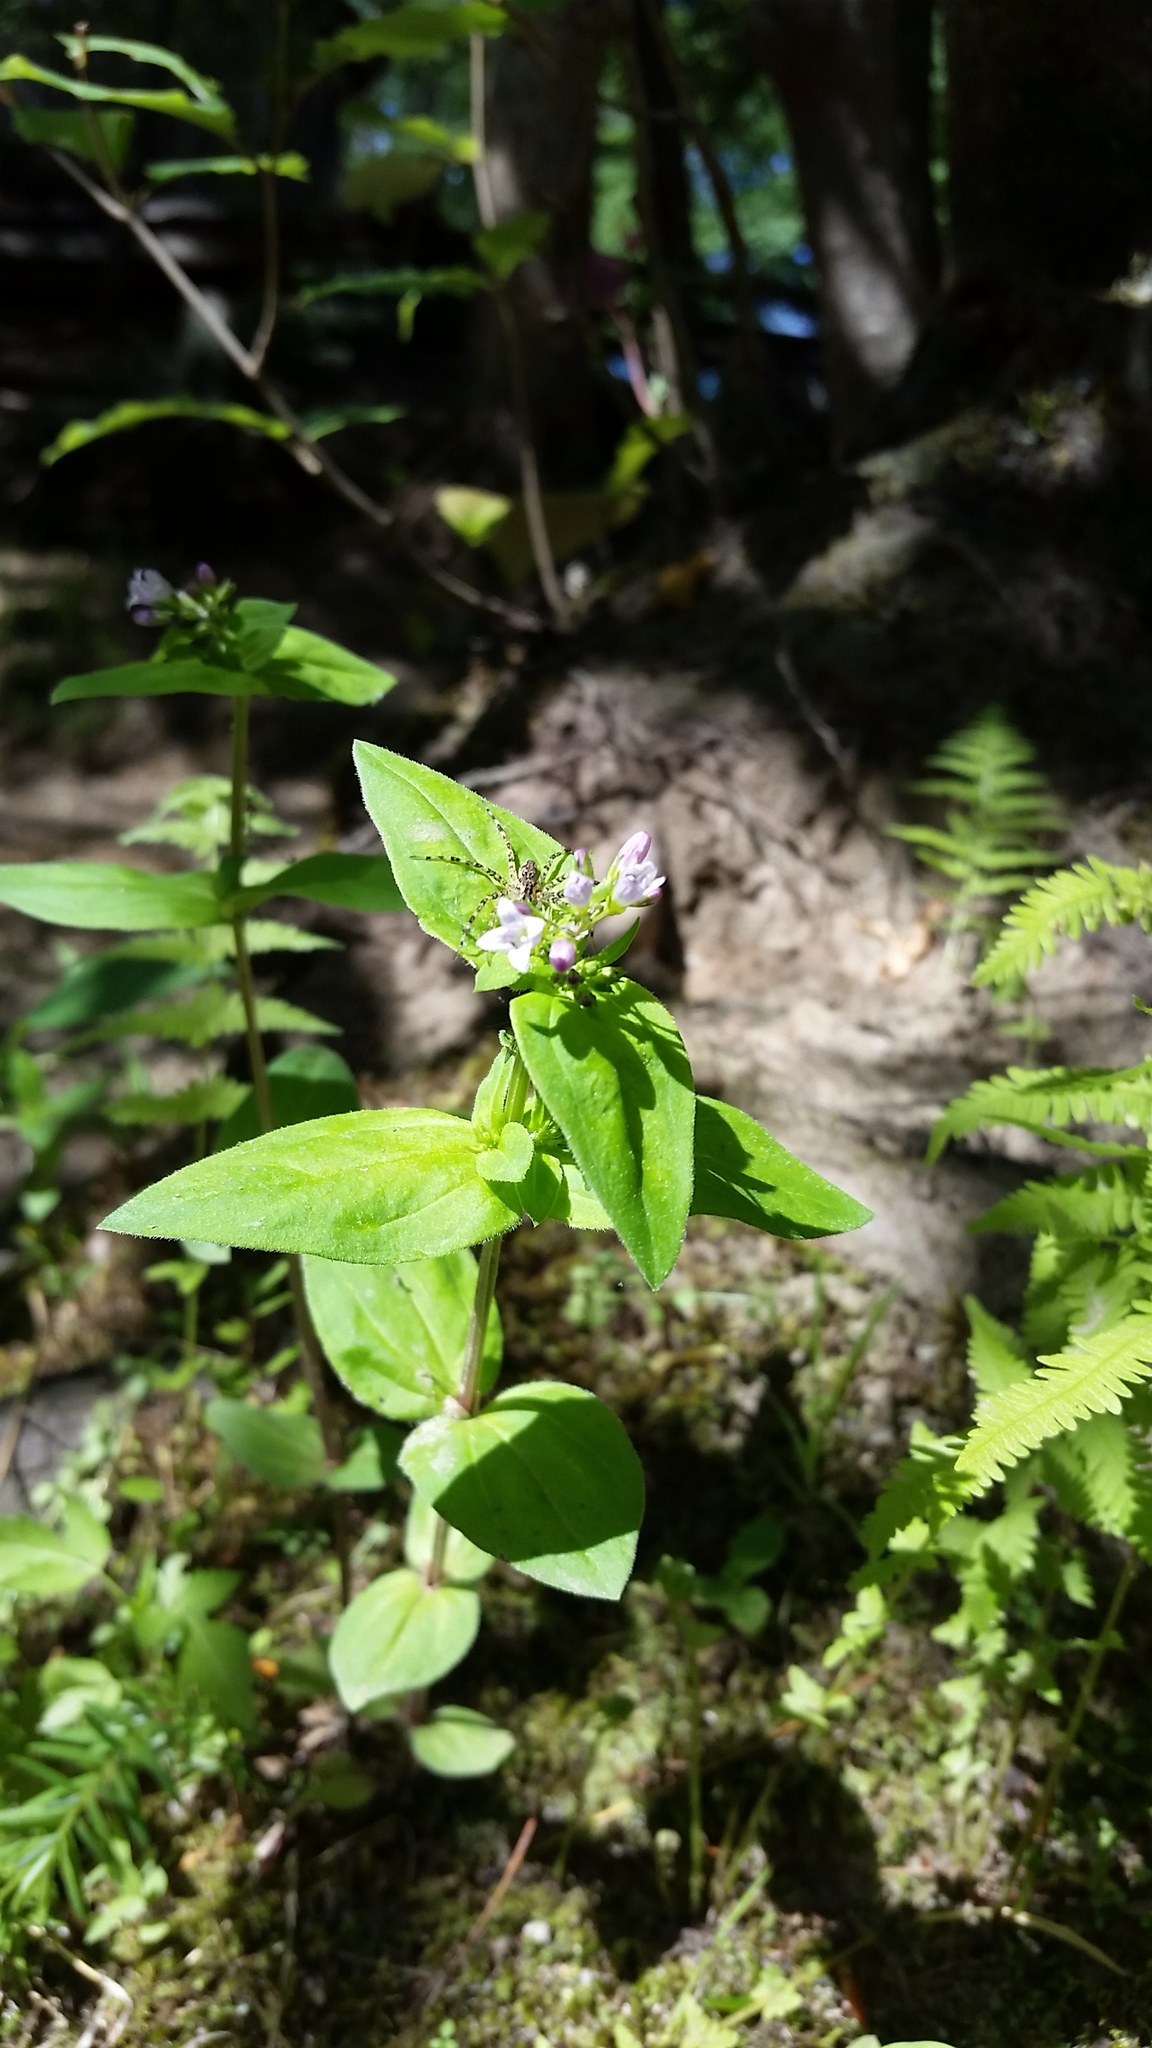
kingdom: Plantae
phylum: Tracheophyta
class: Magnoliopsida
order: Gentianales
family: Rubiaceae
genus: Houstonia
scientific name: Houstonia purpurea
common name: Summer bluet
